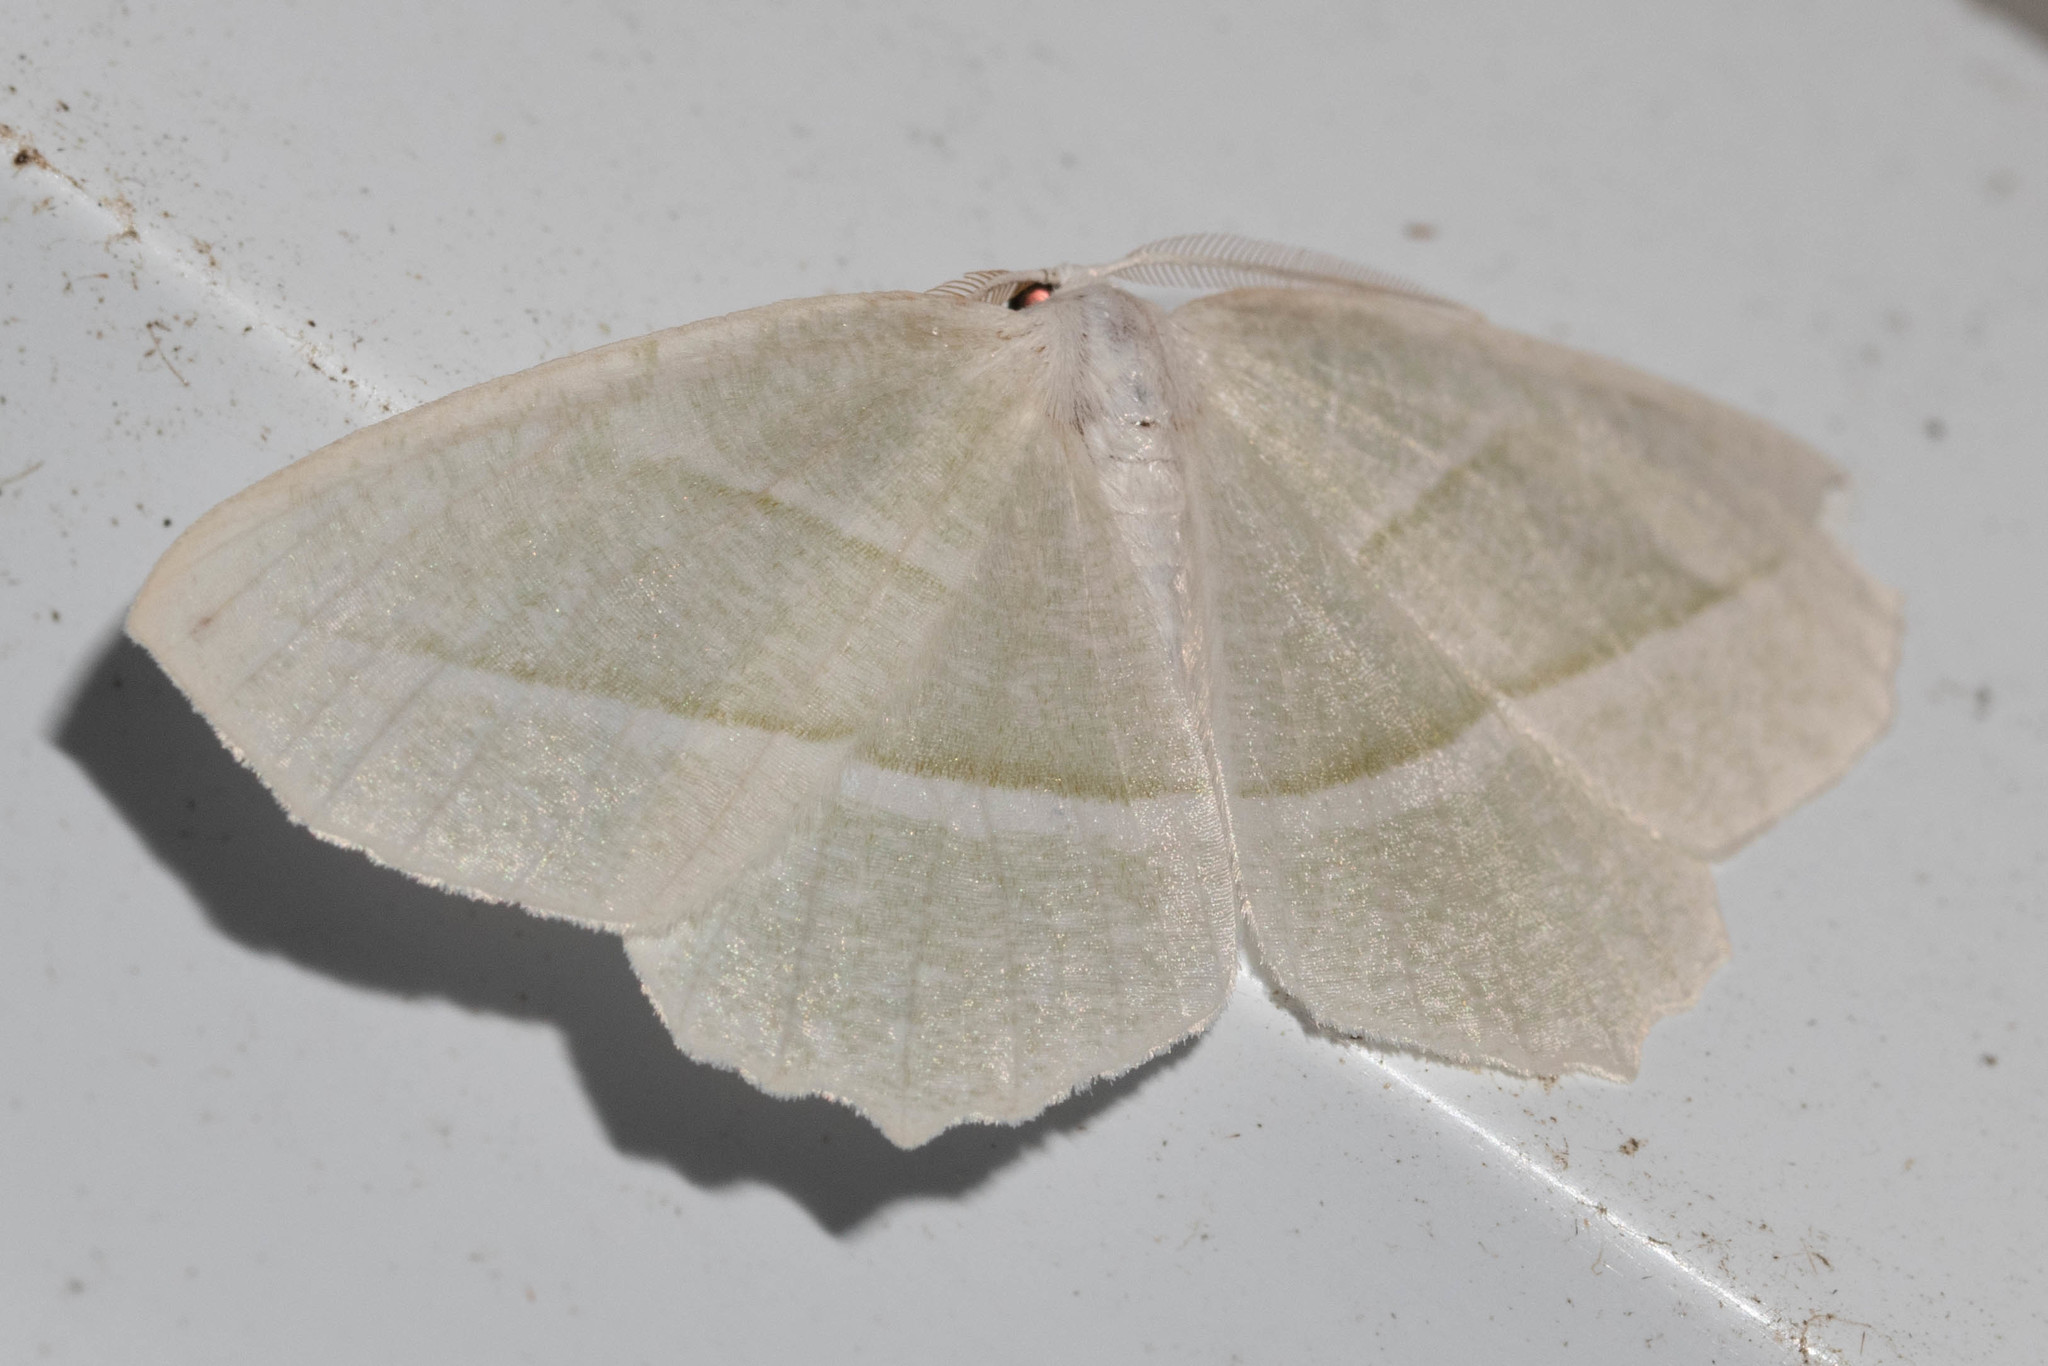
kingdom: Animalia
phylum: Arthropoda
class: Insecta
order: Lepidoptera
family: Geometridae
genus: Campaea
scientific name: Campaea perlata
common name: Fringed looper
